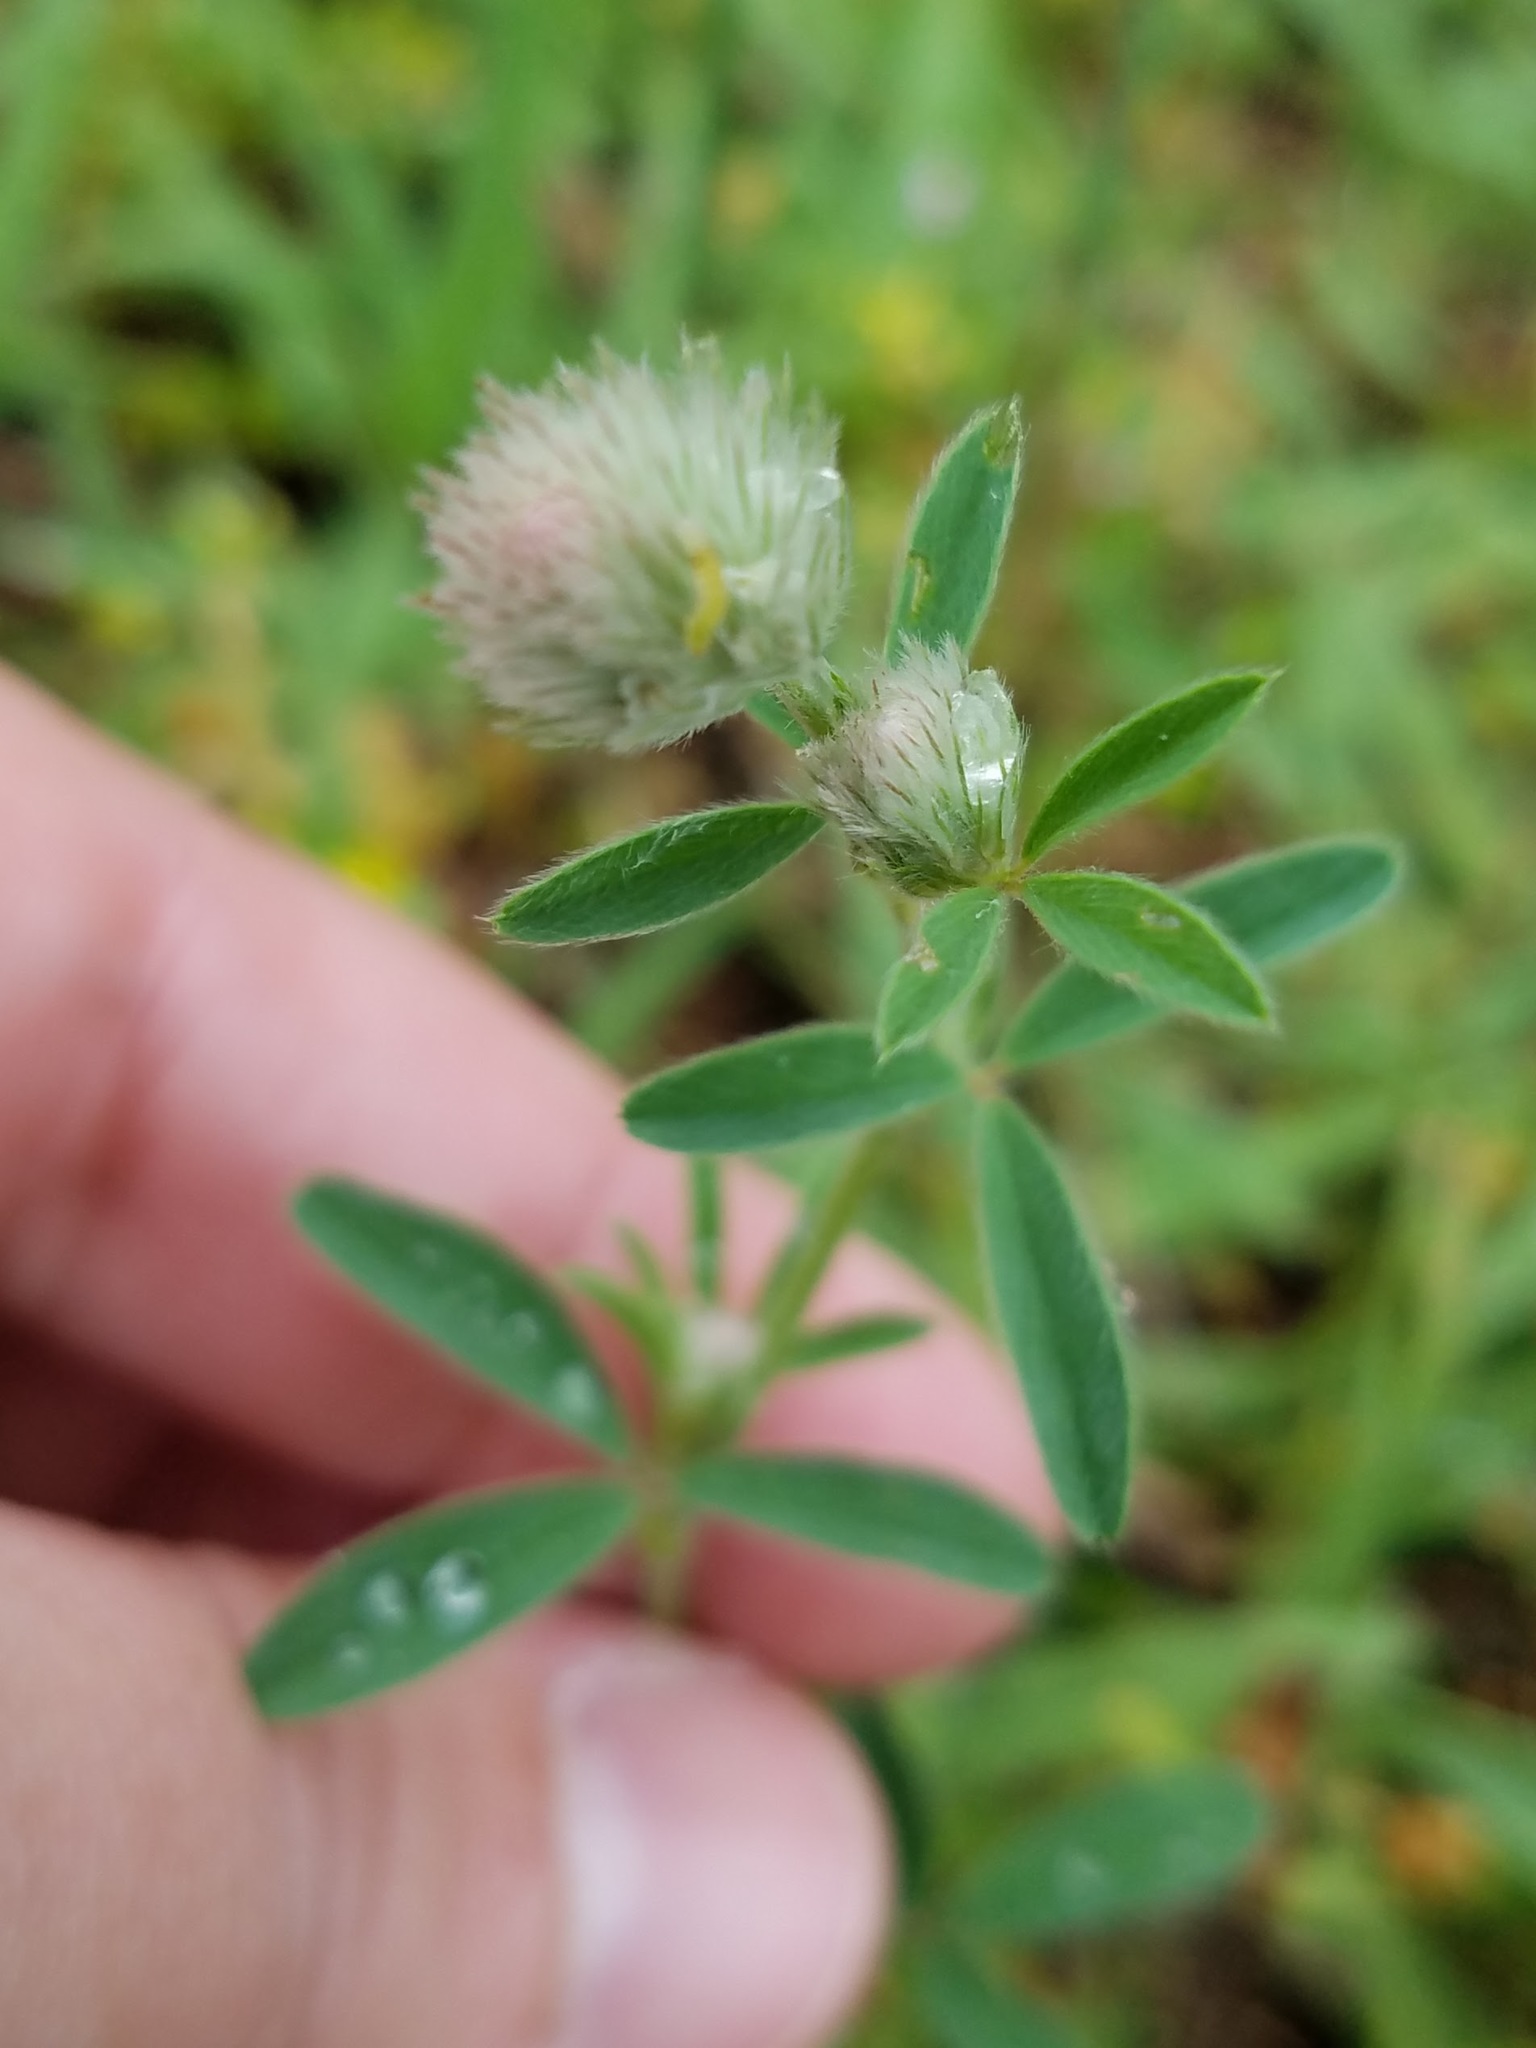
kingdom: Plantae
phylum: Tracheophyta
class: Magnoliopsida
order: Fabales
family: Fabaceae
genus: Trifolium
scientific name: Trifolium arvense
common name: Hare's-foot clover
